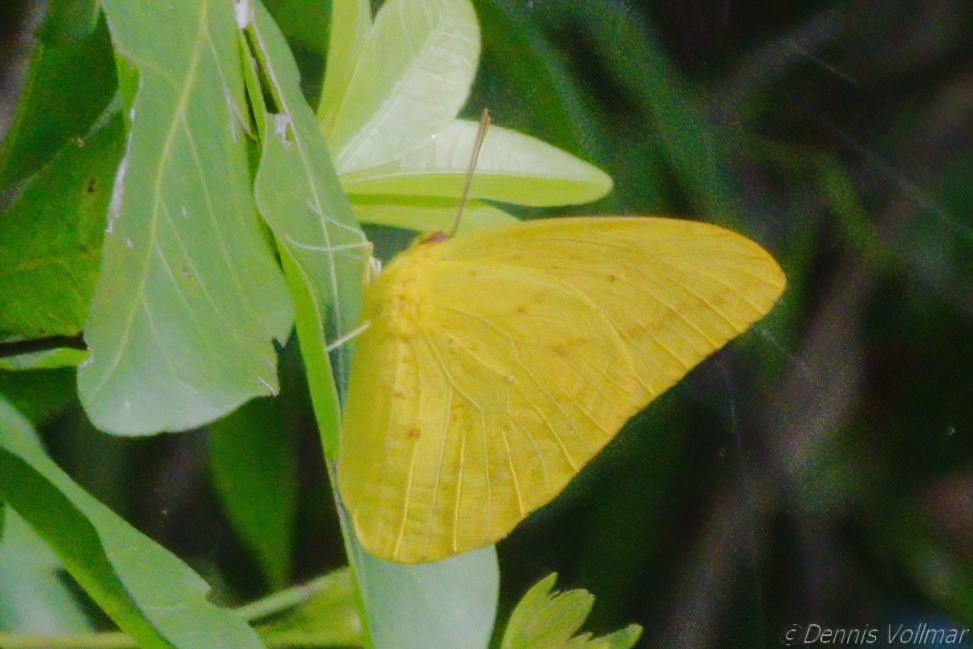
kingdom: Animalia
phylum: Arthropoda
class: Insecta
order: Lepidoptera
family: Pieridae
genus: Phoebis
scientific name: Phoebis agarithe
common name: Large orange sulphur
